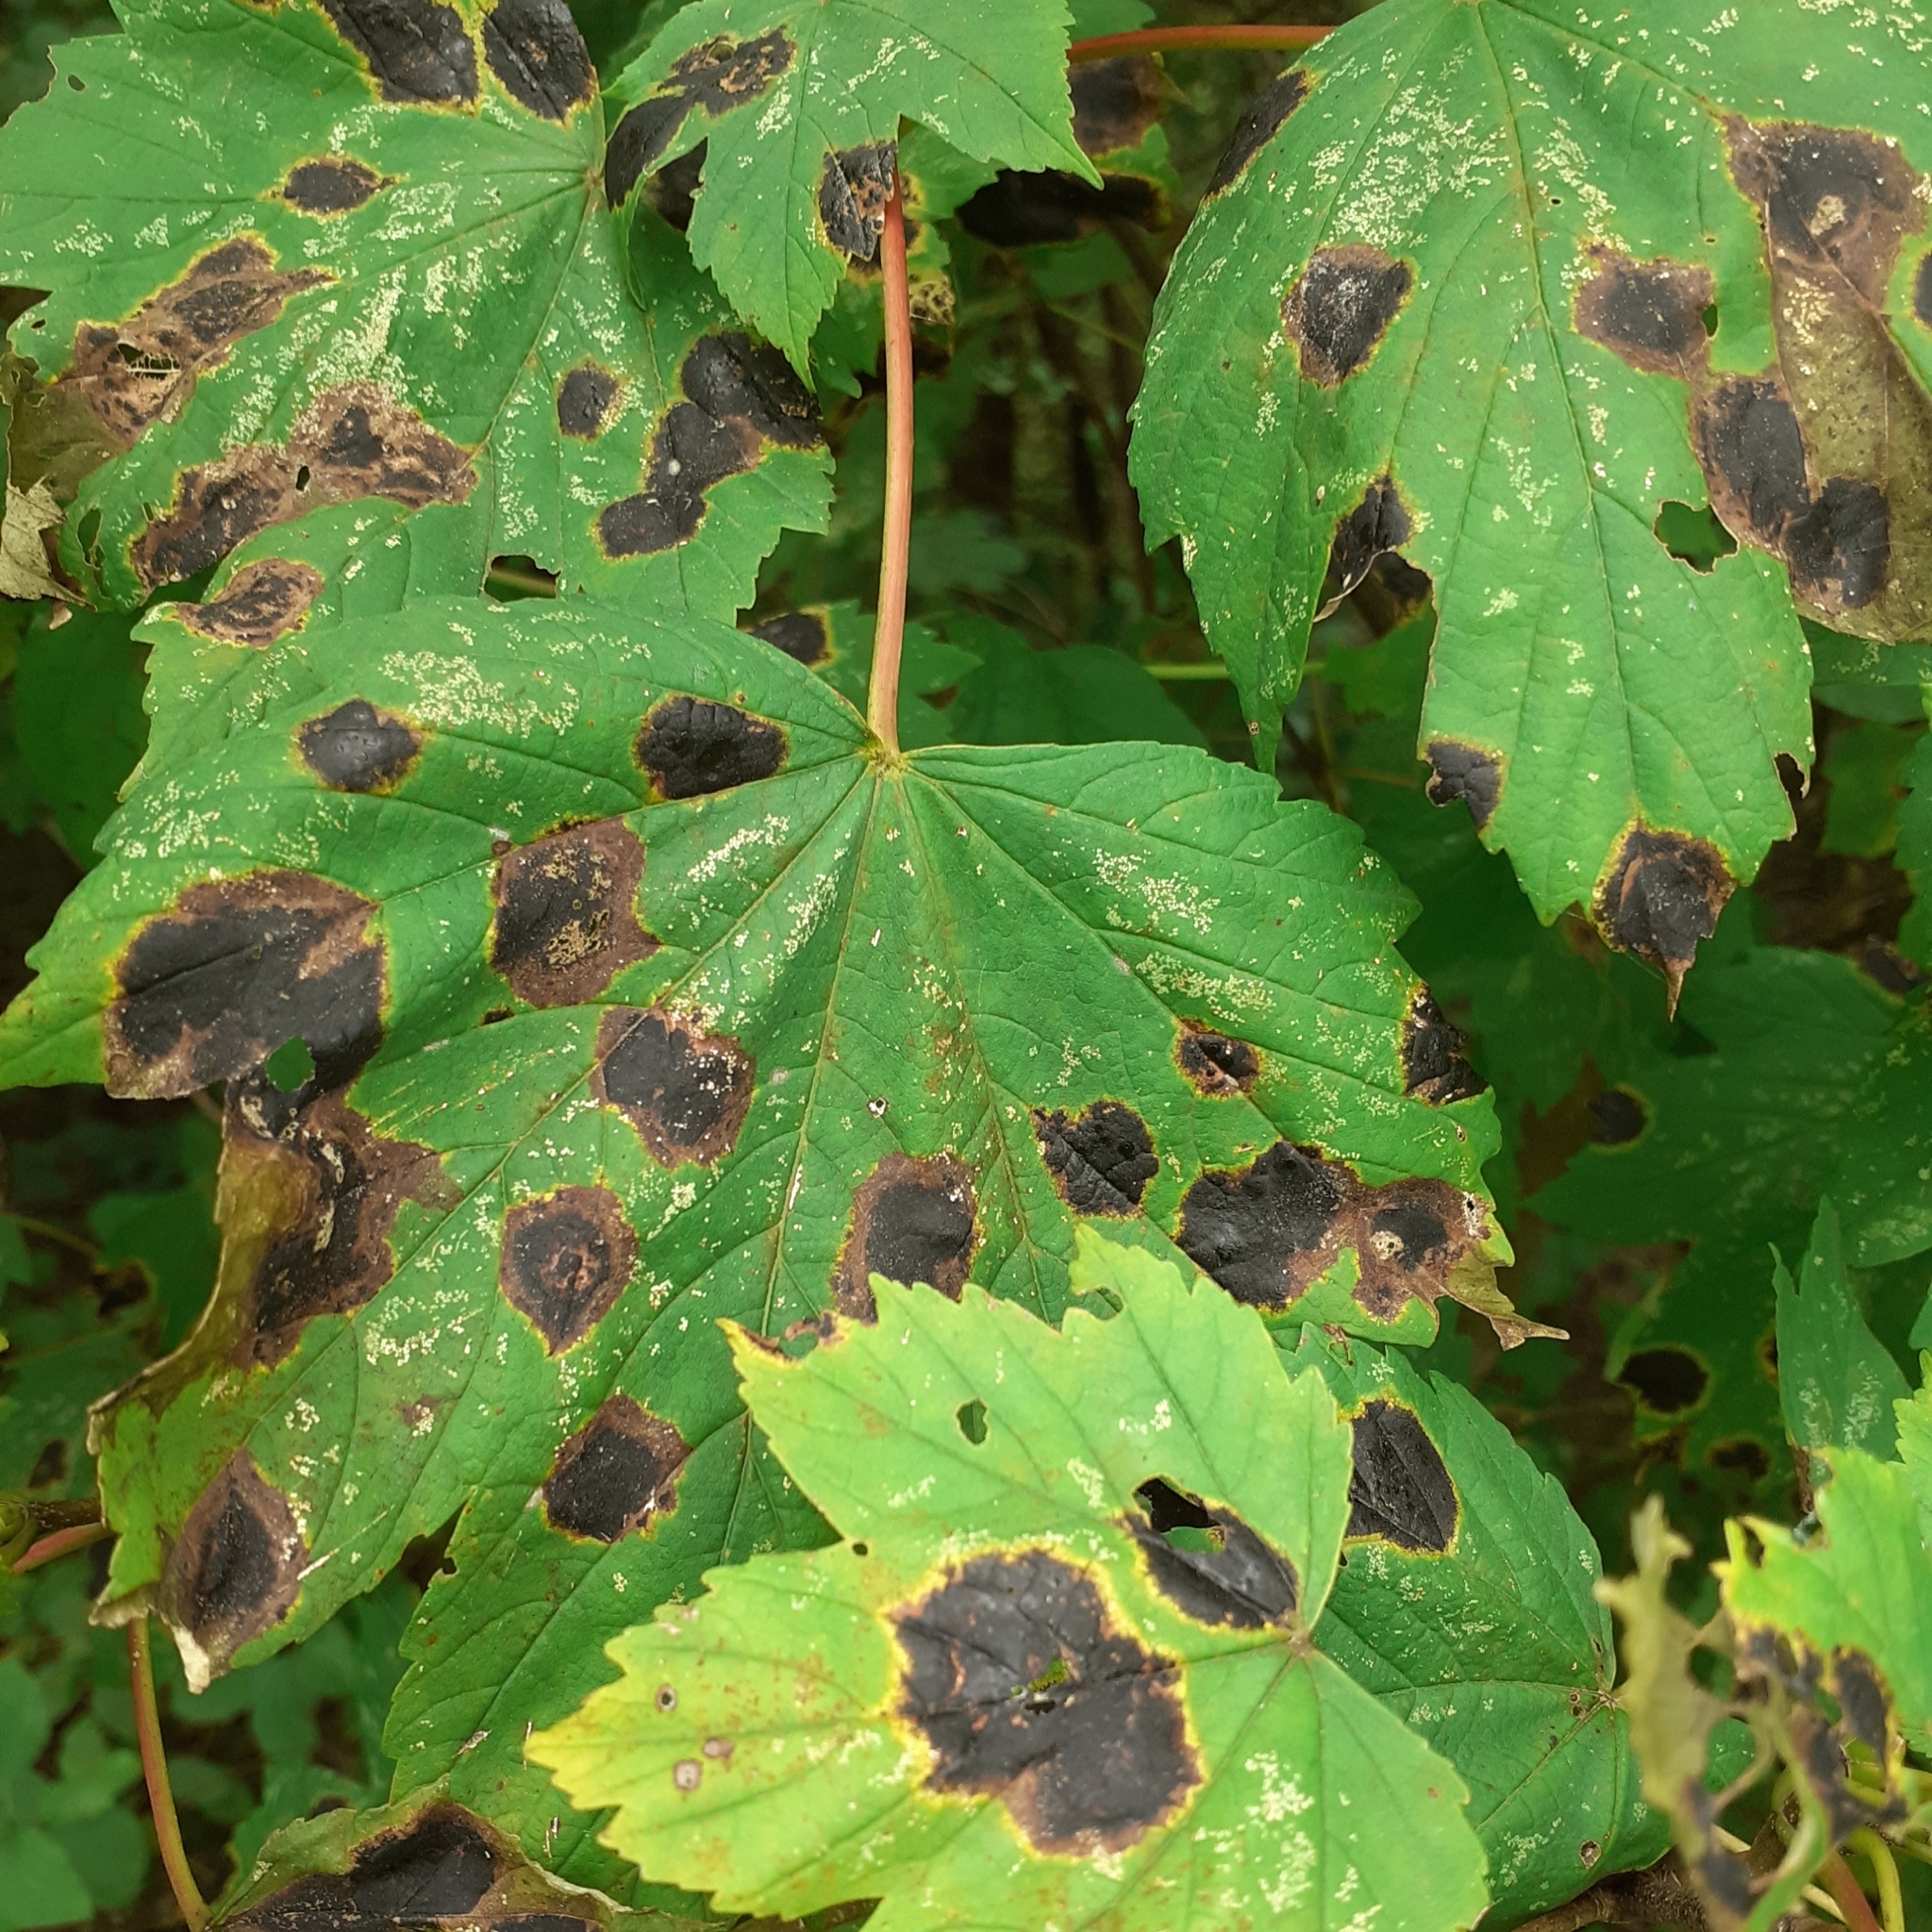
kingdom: Fungi
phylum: Ascomycota
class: Leotiomycetes
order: Rhytismatales
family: Rhytismataceae
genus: Rhytisma
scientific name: Rhytisma acerinum
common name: European tar spot
